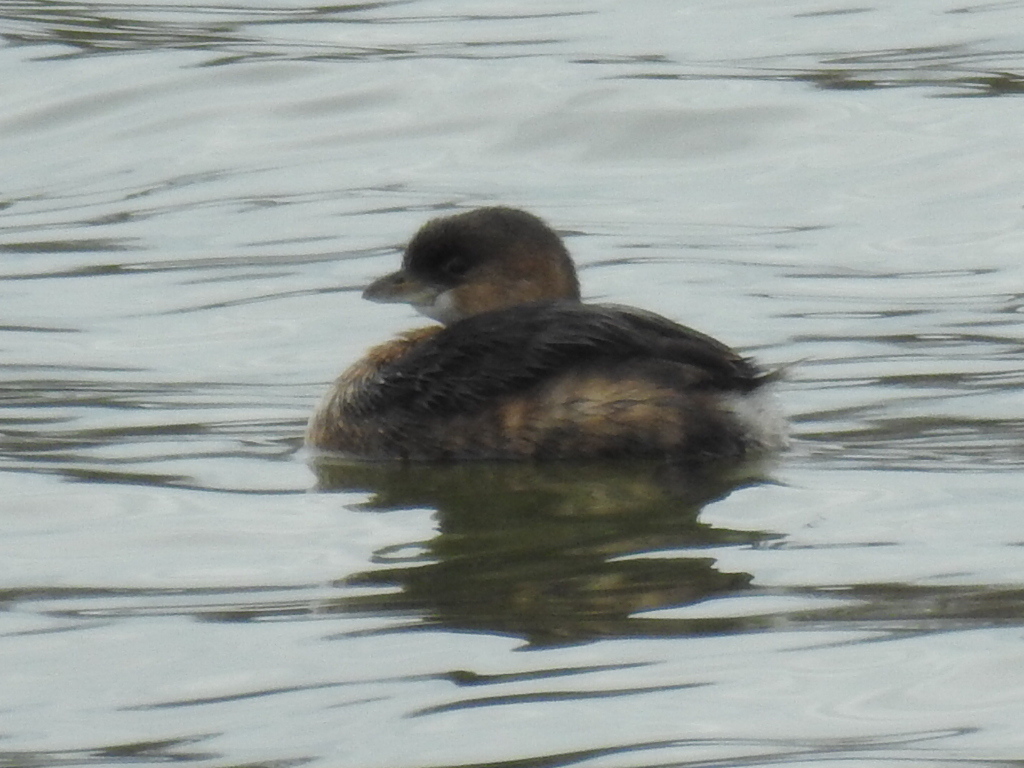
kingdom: Animalia
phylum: Chordata
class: Aves
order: Podicipediformes
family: Podicipedidae
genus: Podilymbus
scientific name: Podilymbus podiceps
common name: Pied-billed grebe
